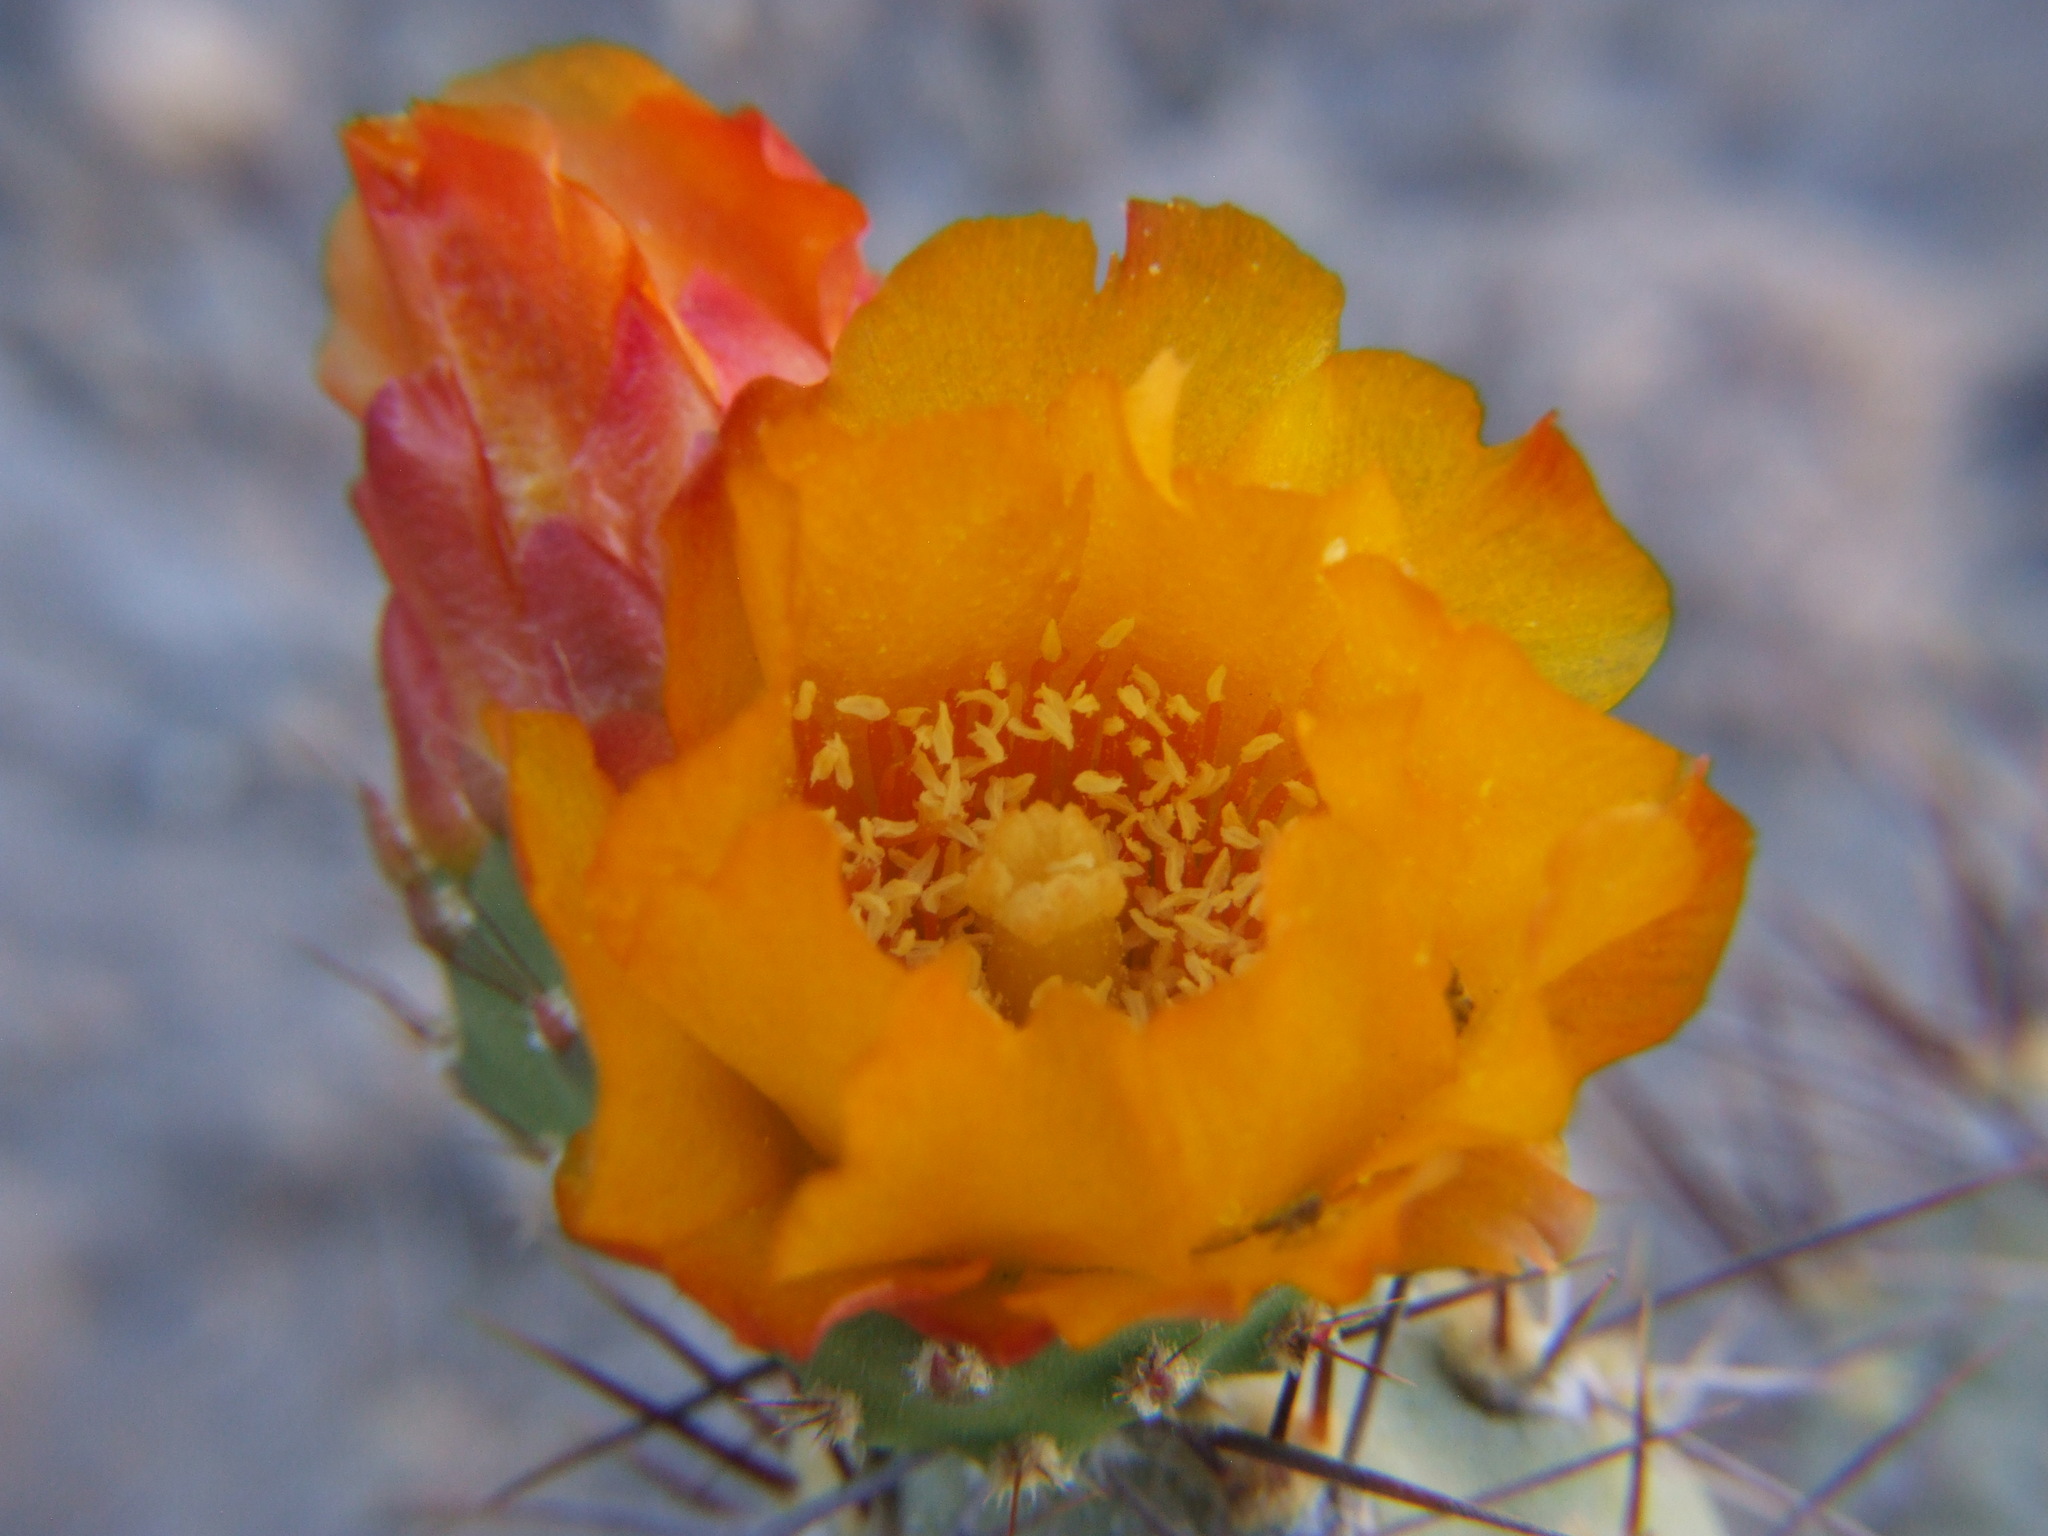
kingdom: Plantae
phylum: Tracheophyta
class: Magnoliopsida
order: Caryophyllales
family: Cactaceae
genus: Cumulopuntia
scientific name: Cumulopuntia leucophaea
